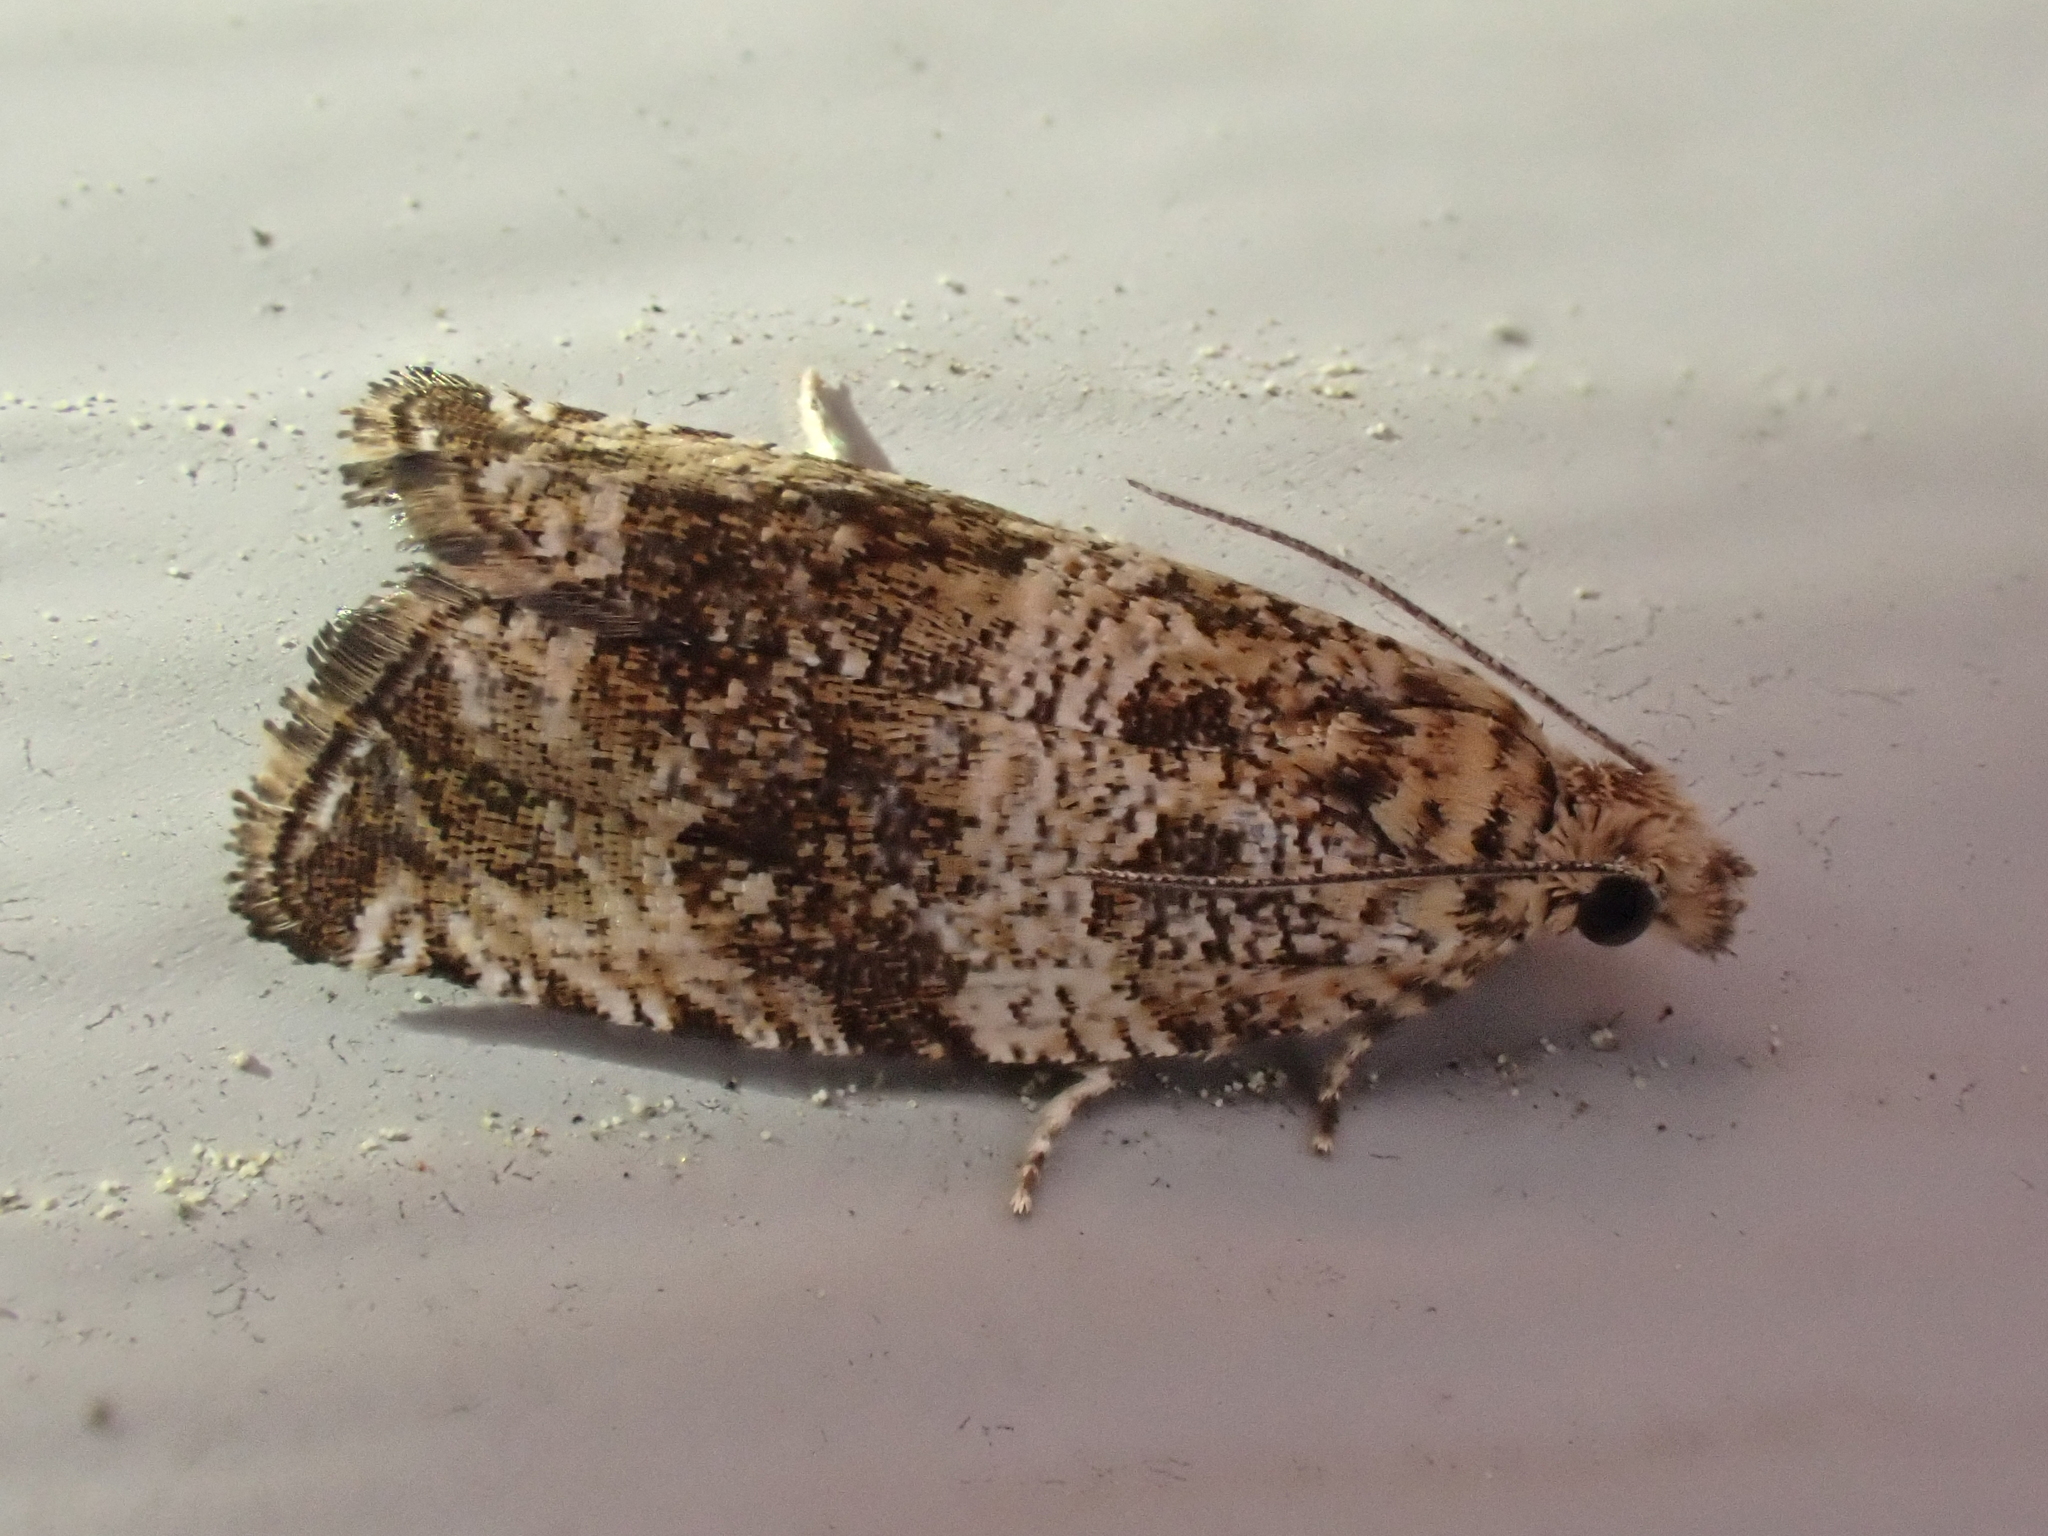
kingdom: Animalia
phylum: Arthropoda
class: Insecta
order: Lepidoptera
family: Tortricidae
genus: Celypha
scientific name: Celypha cespitana
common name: Thyme marble
